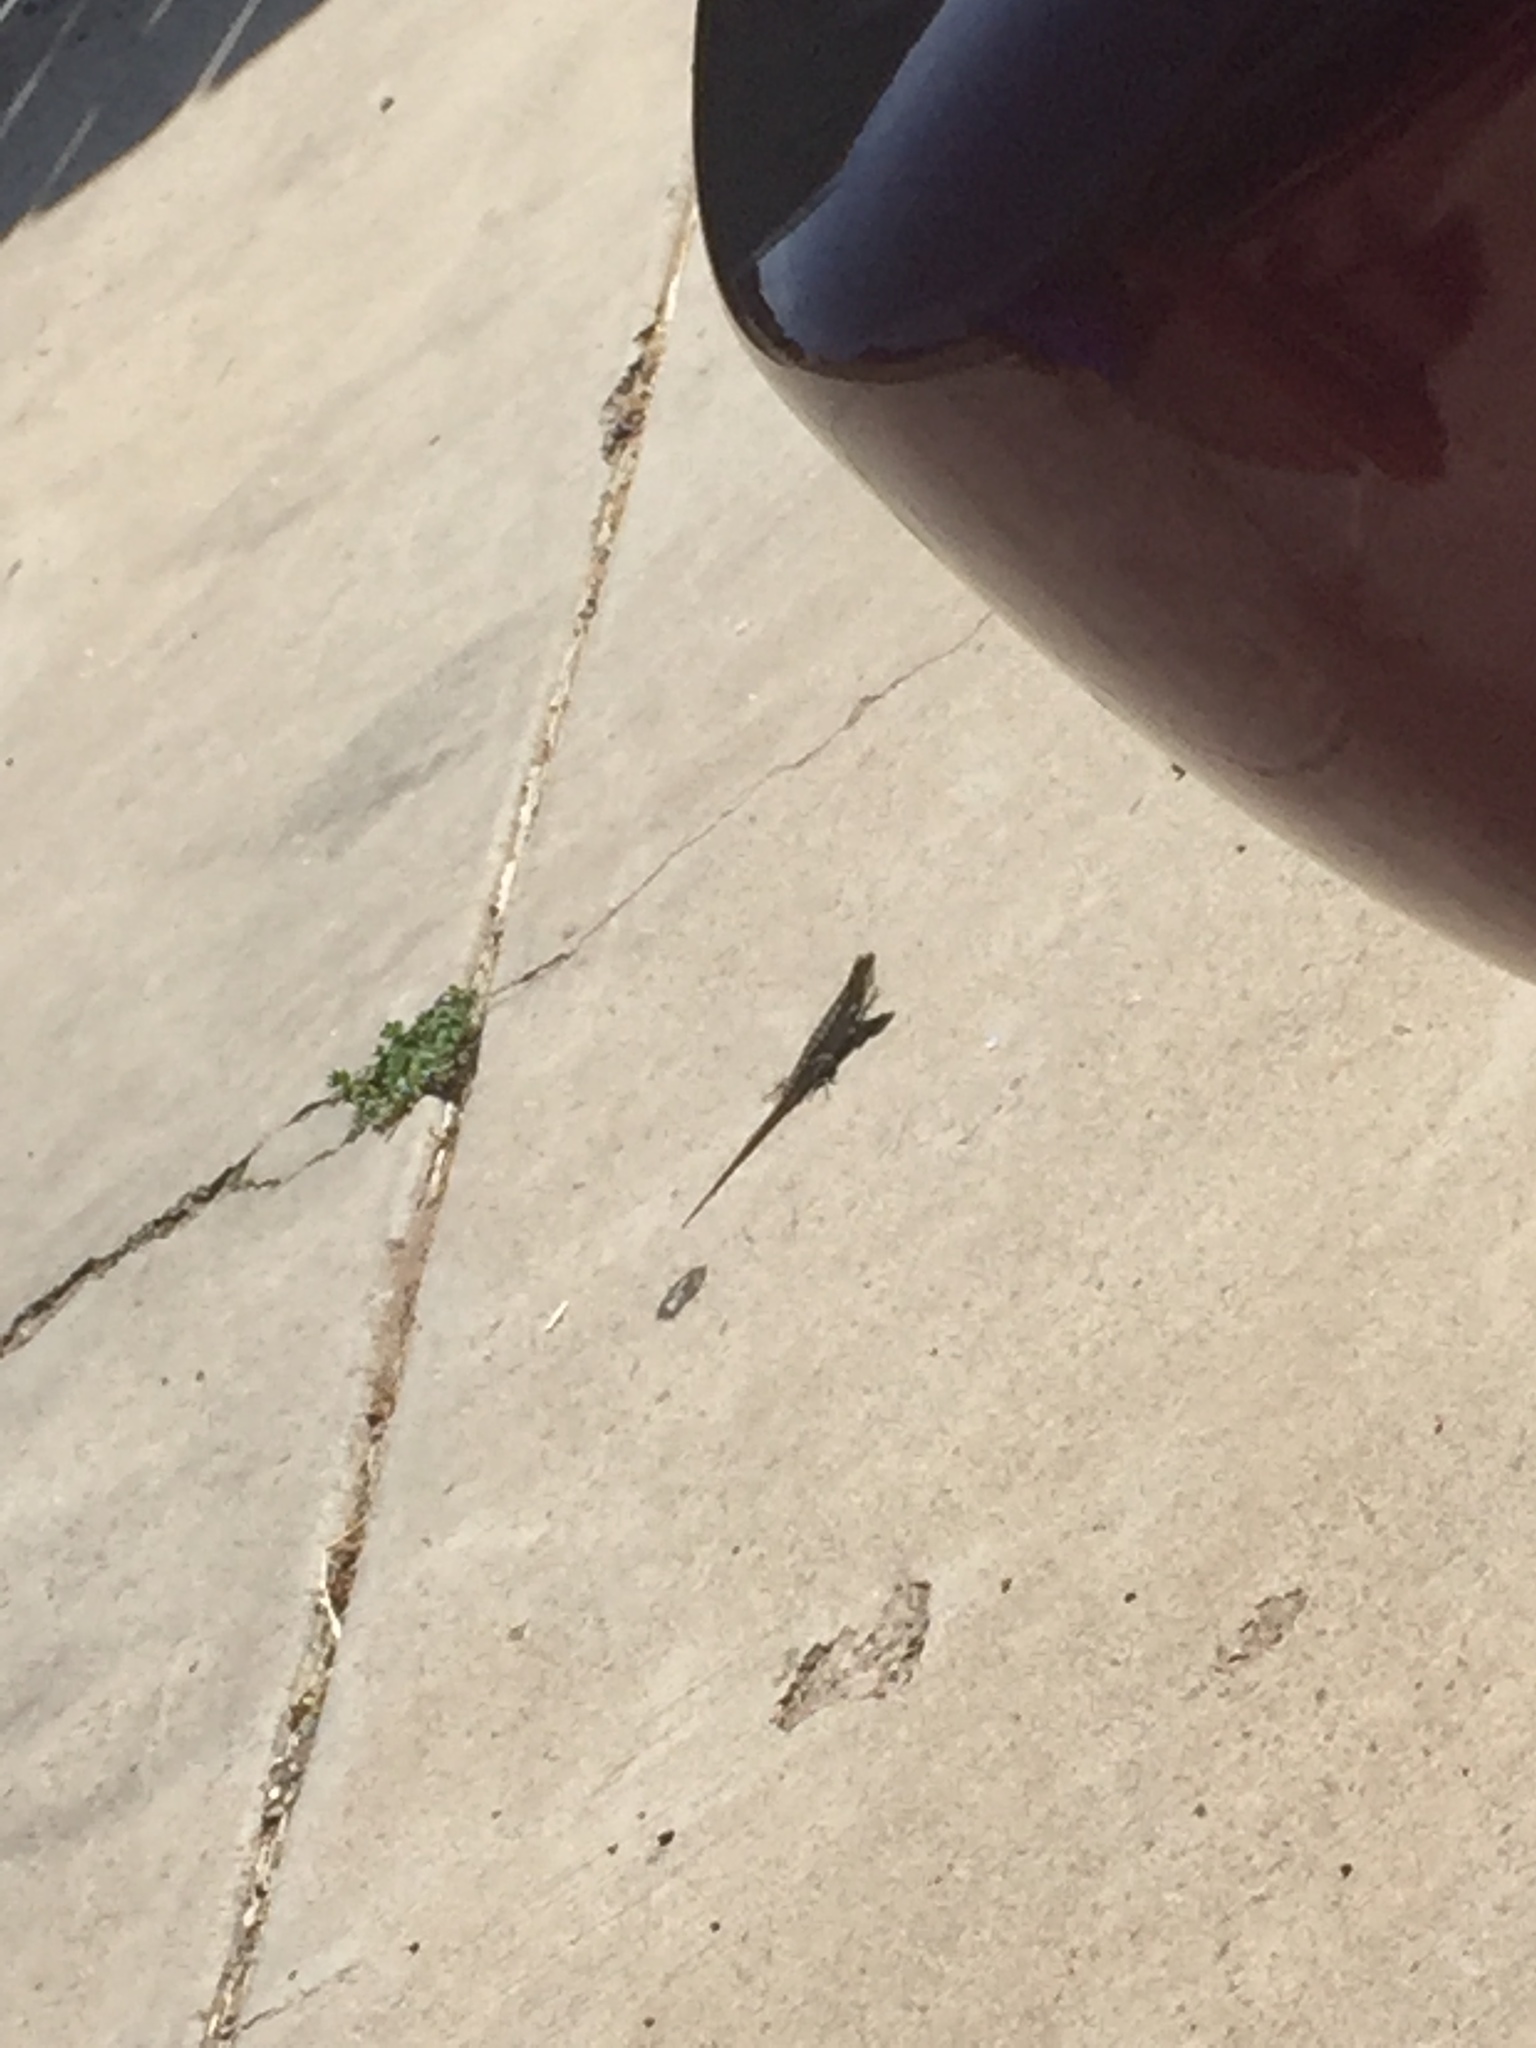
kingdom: Animalia
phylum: Chordata
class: Squamata
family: Phrynosomatidae
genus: Sceloporus
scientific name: Sceloporus occidentalis
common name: Western fence lizard
